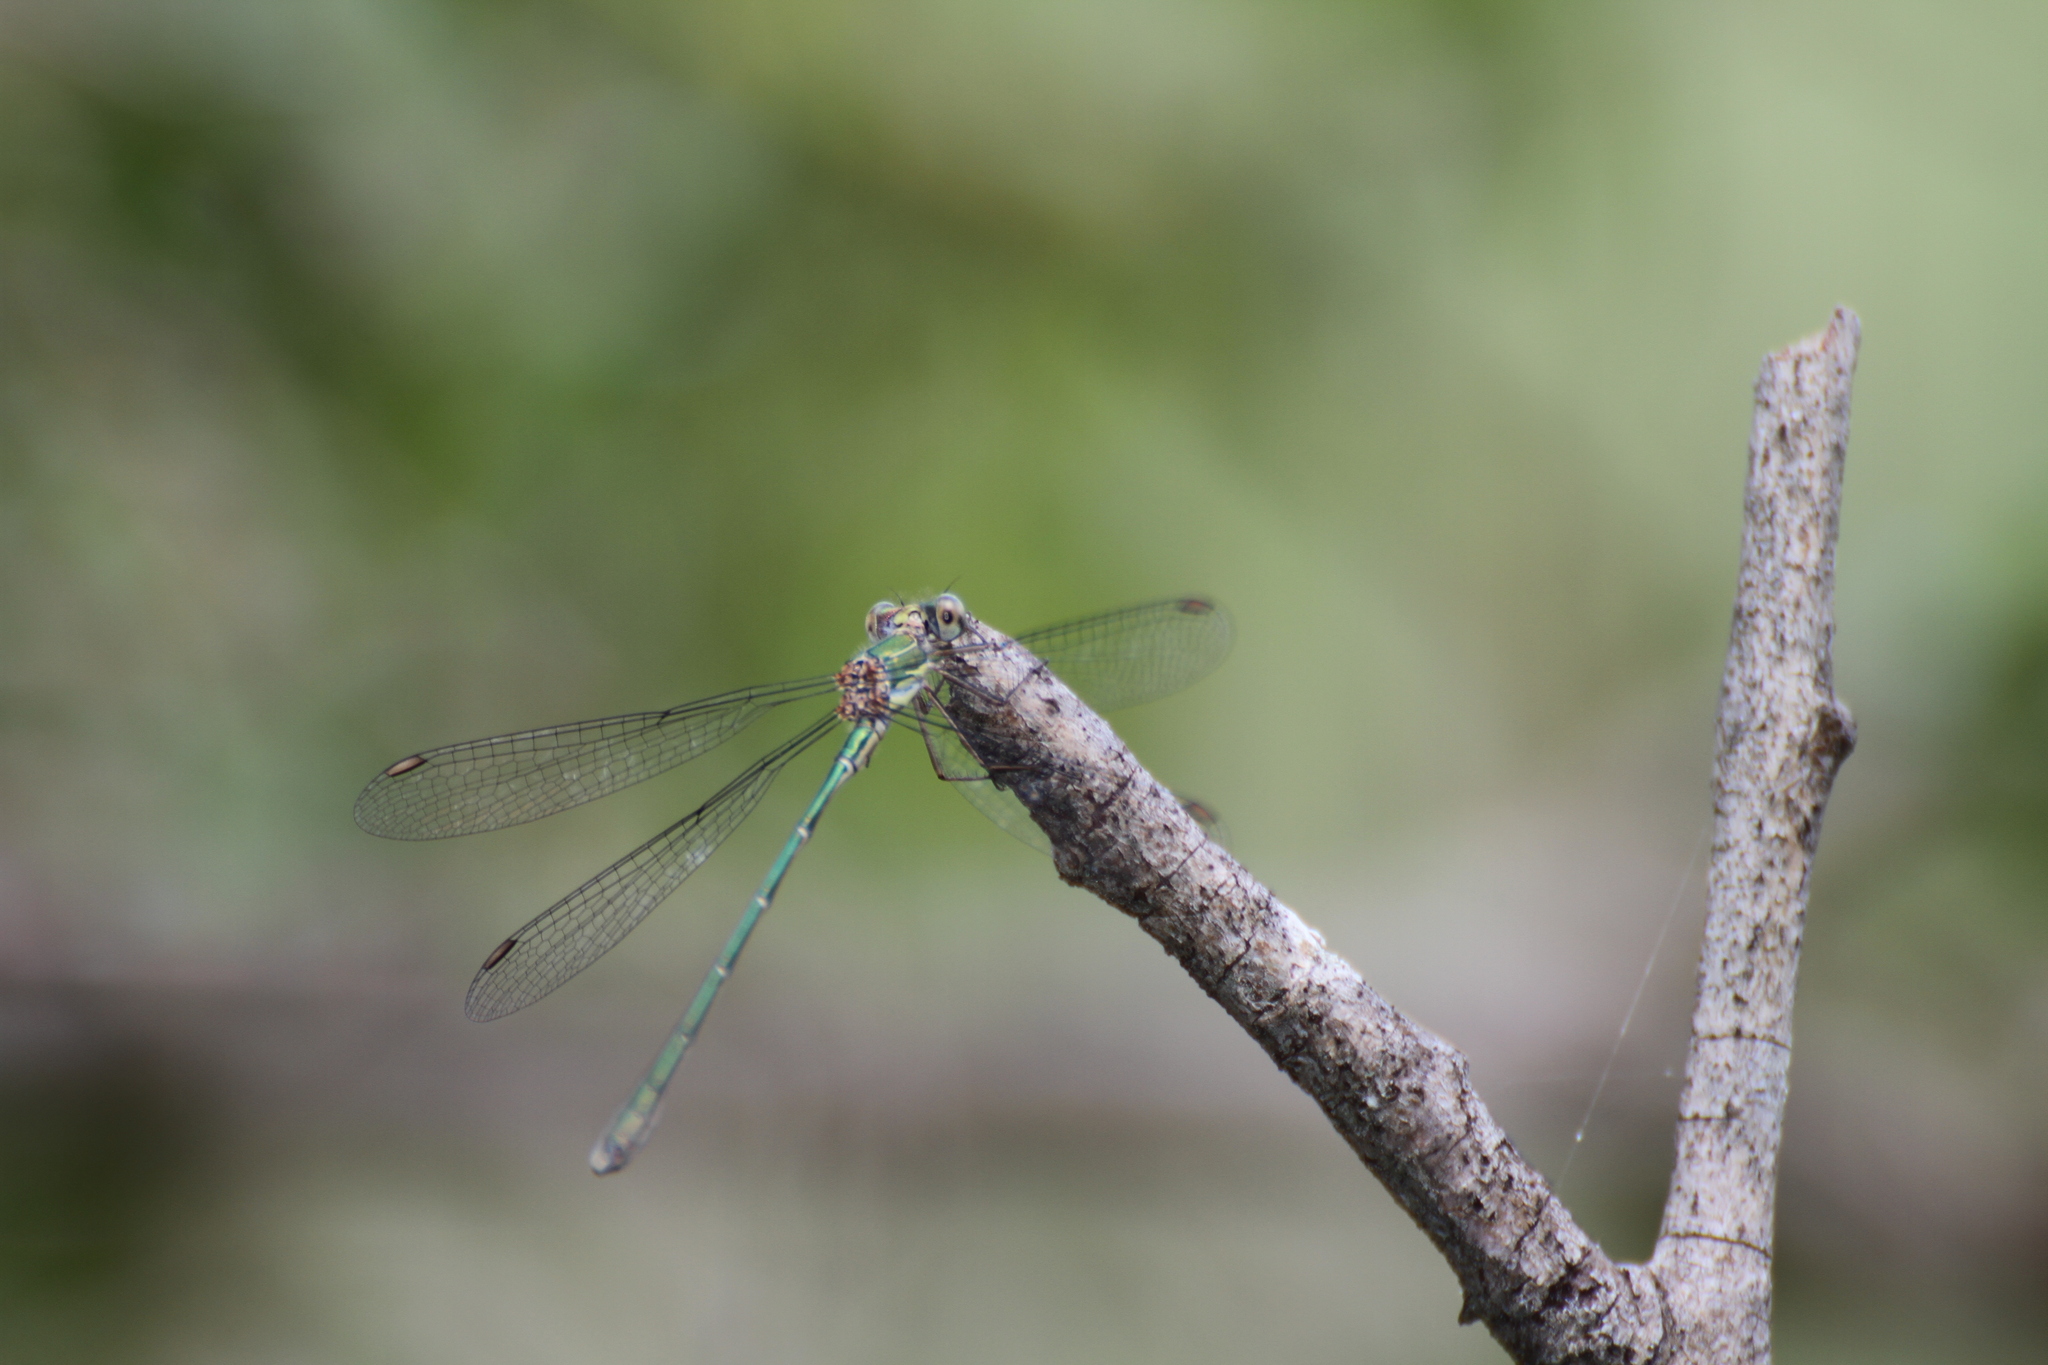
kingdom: Animalia
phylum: Arthropoda
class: Insecta
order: Odonata
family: Lestidae
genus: Chalcolestes
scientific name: Chalcolestes viridis
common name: Green emerald damselfly
